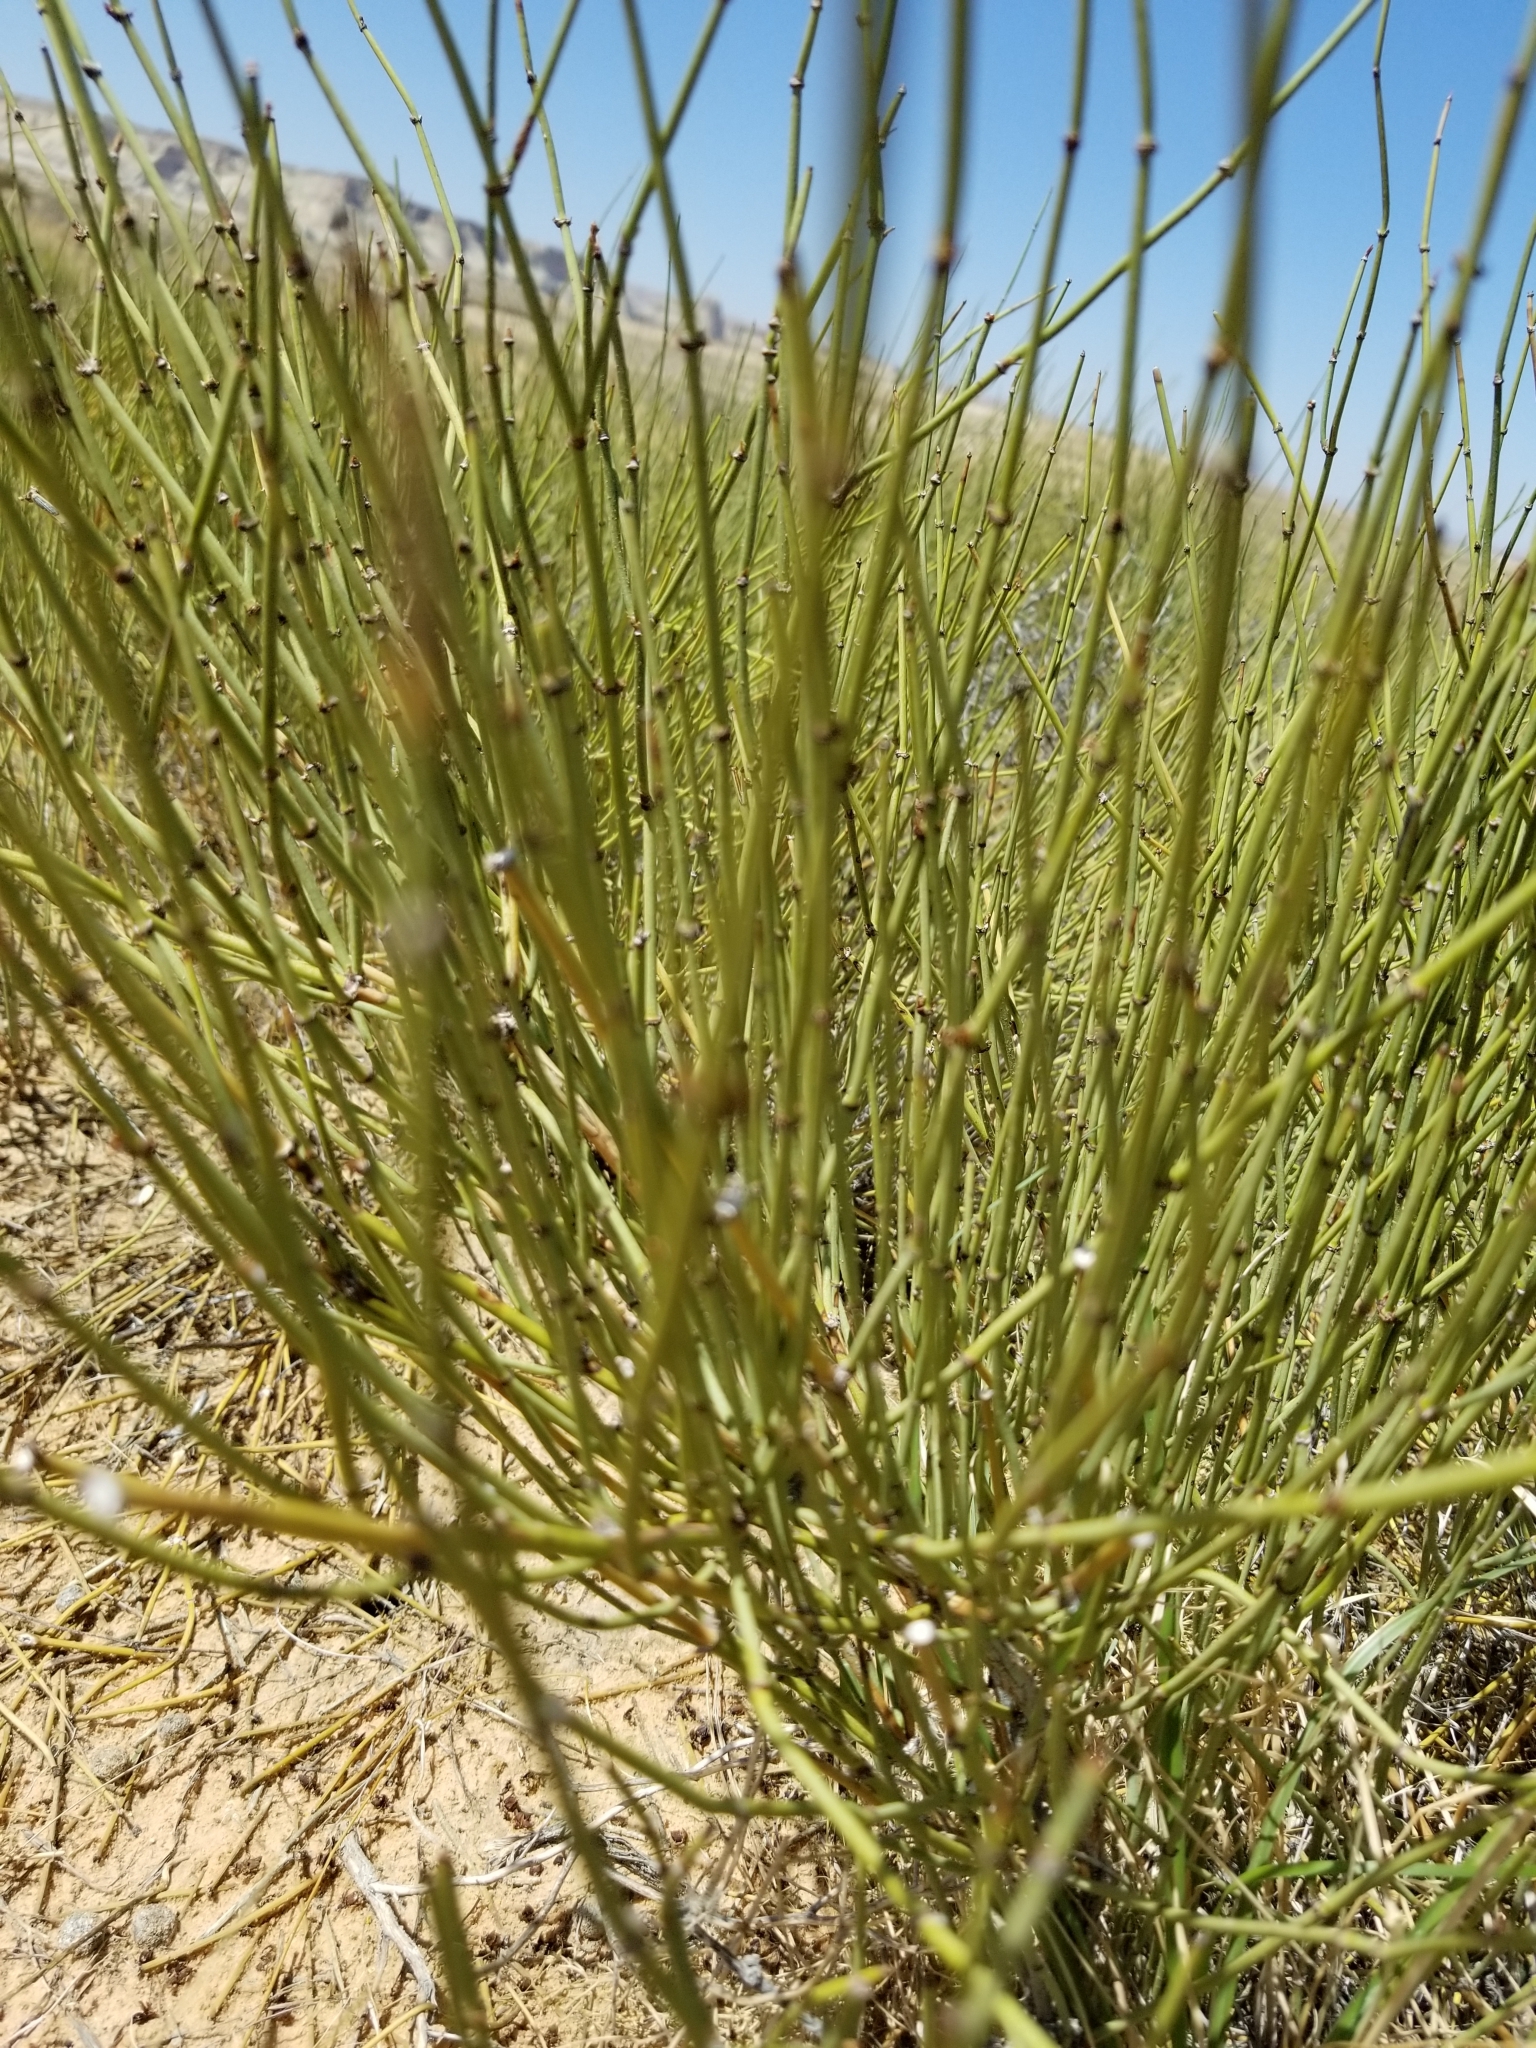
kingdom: Plantae
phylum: Tracheophyta
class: Gnetopsida
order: Ephedrales
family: Ephedraceae
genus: Ephedra
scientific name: Ephedra viridis
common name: Green ephedra
